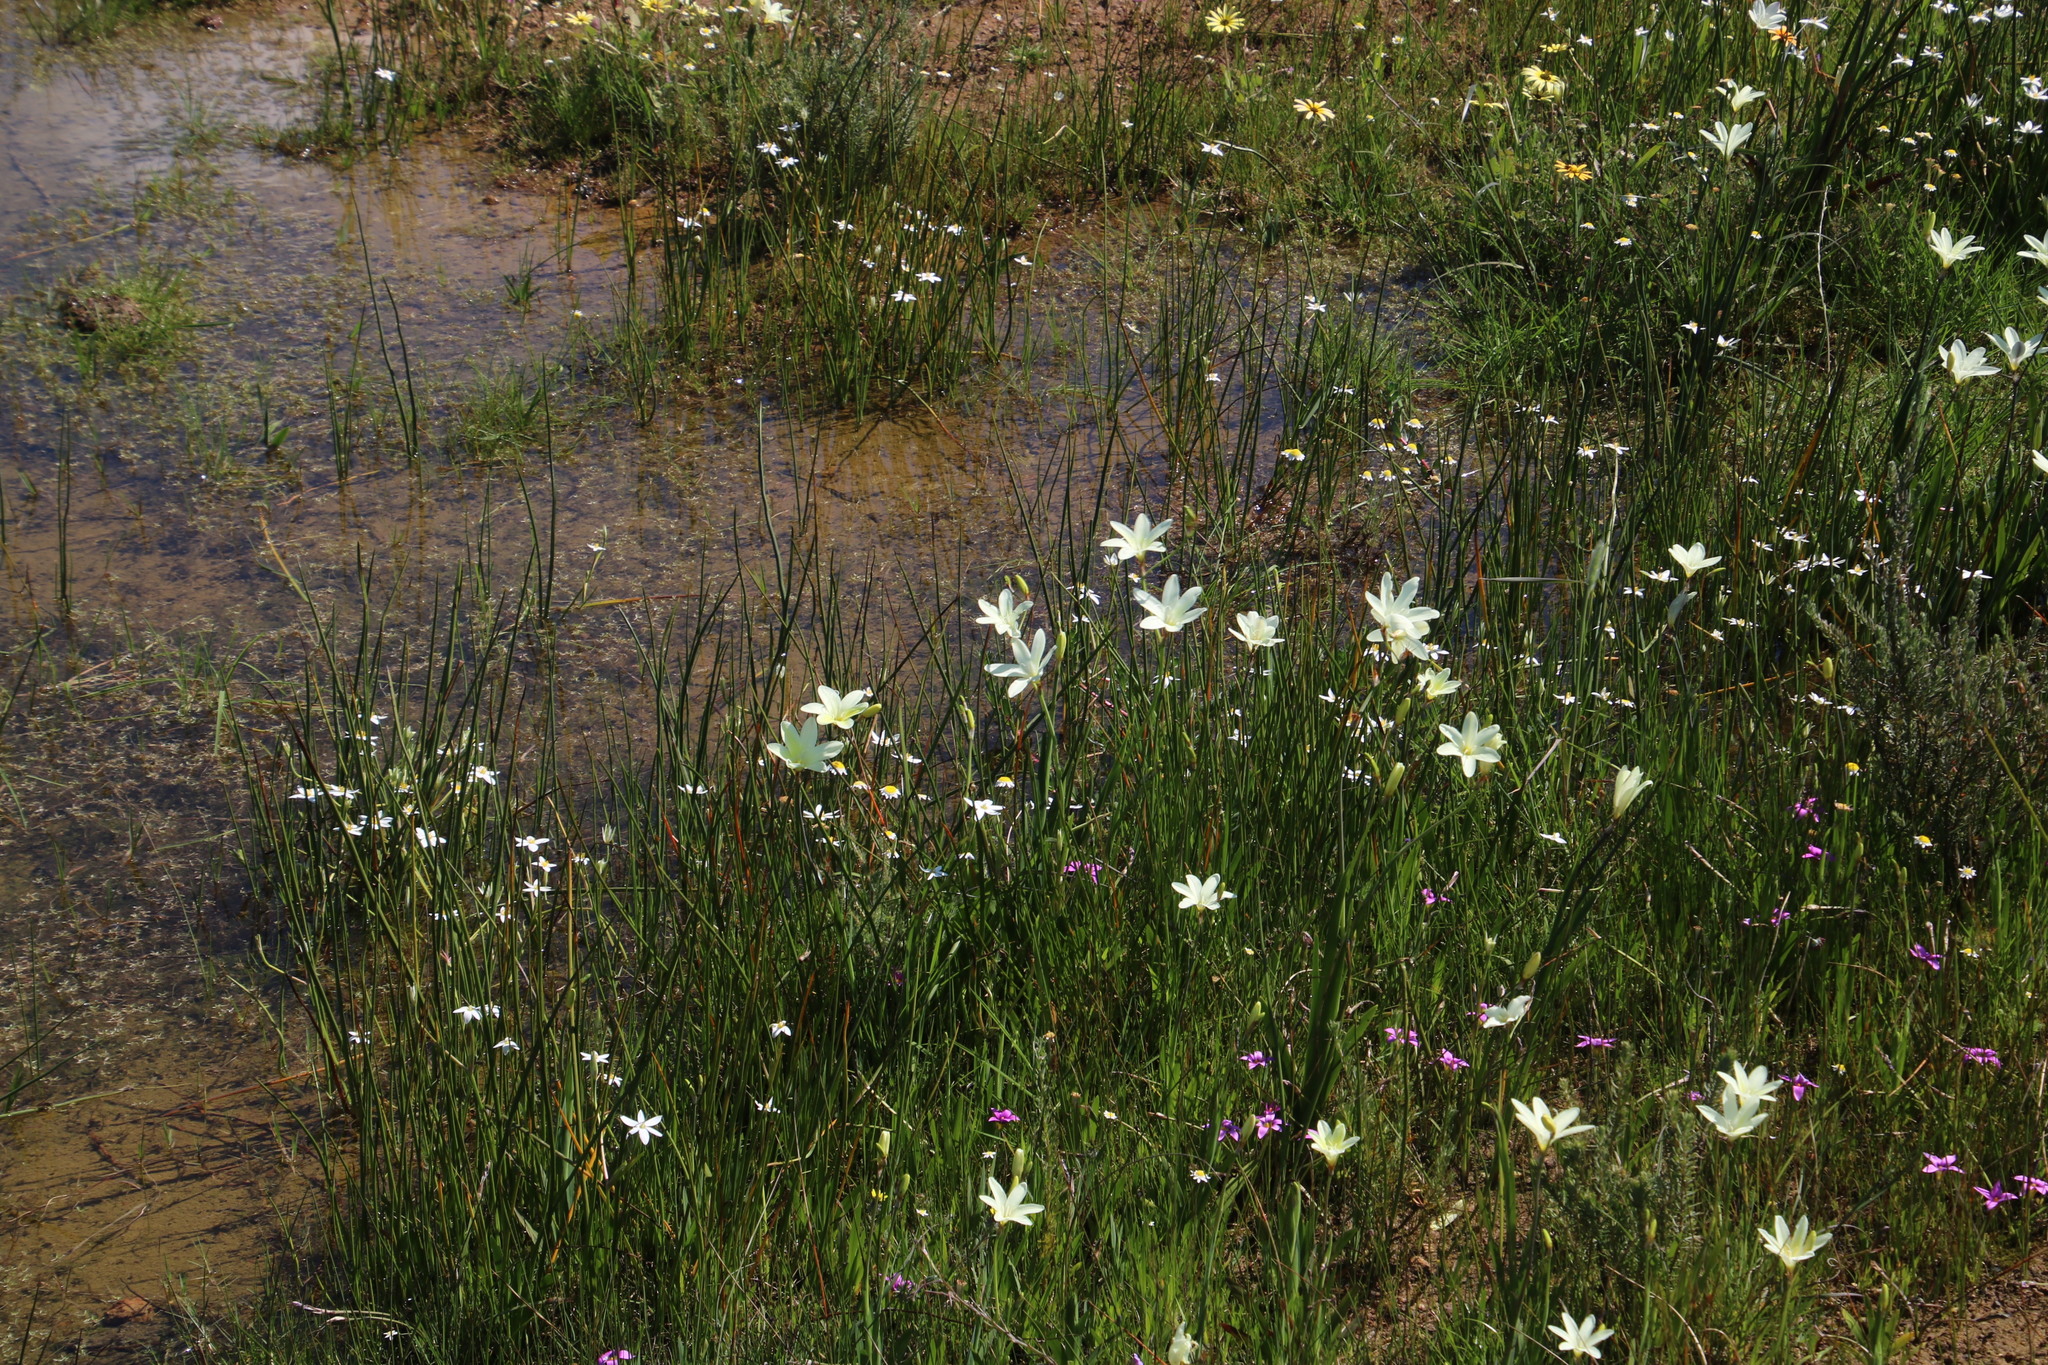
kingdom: Plantae
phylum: Tracheophyta
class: Liliopsida
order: Asparagales
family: Iridaceae
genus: Sparaxis
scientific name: Sparaxis bulbifera
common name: Harlequin-flower
